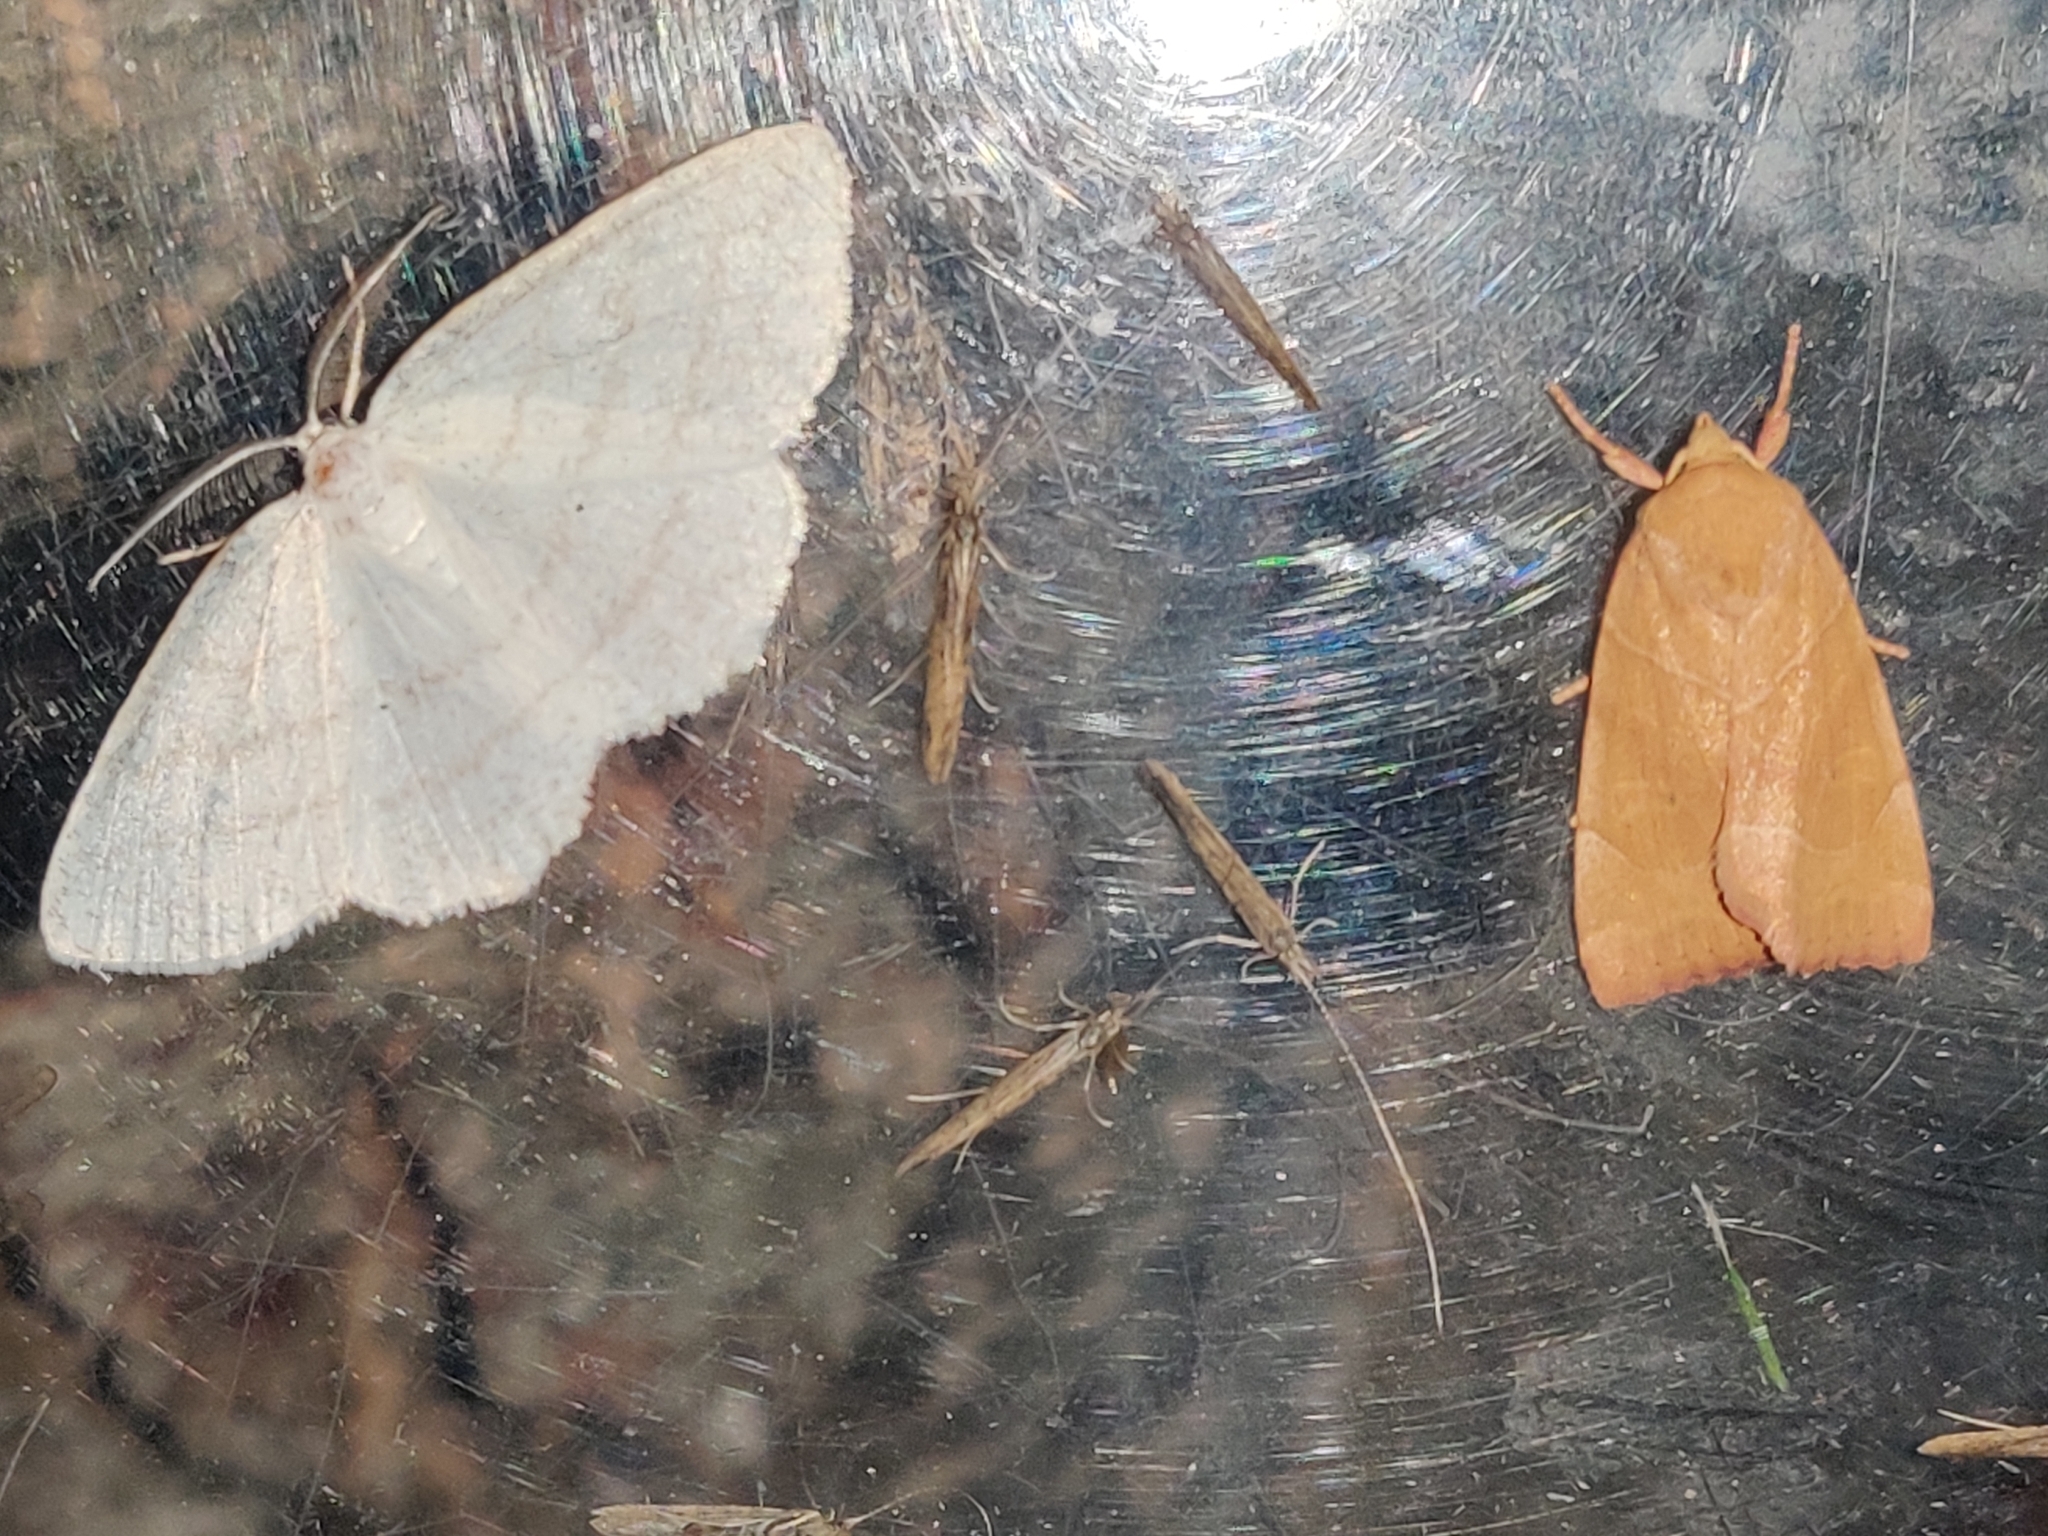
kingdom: Animalia
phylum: Arthropoda
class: Insecta
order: Lepidoptera
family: Noctuidae
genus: Cosmia
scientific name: Cosmia trapezina
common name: Dun-bar
